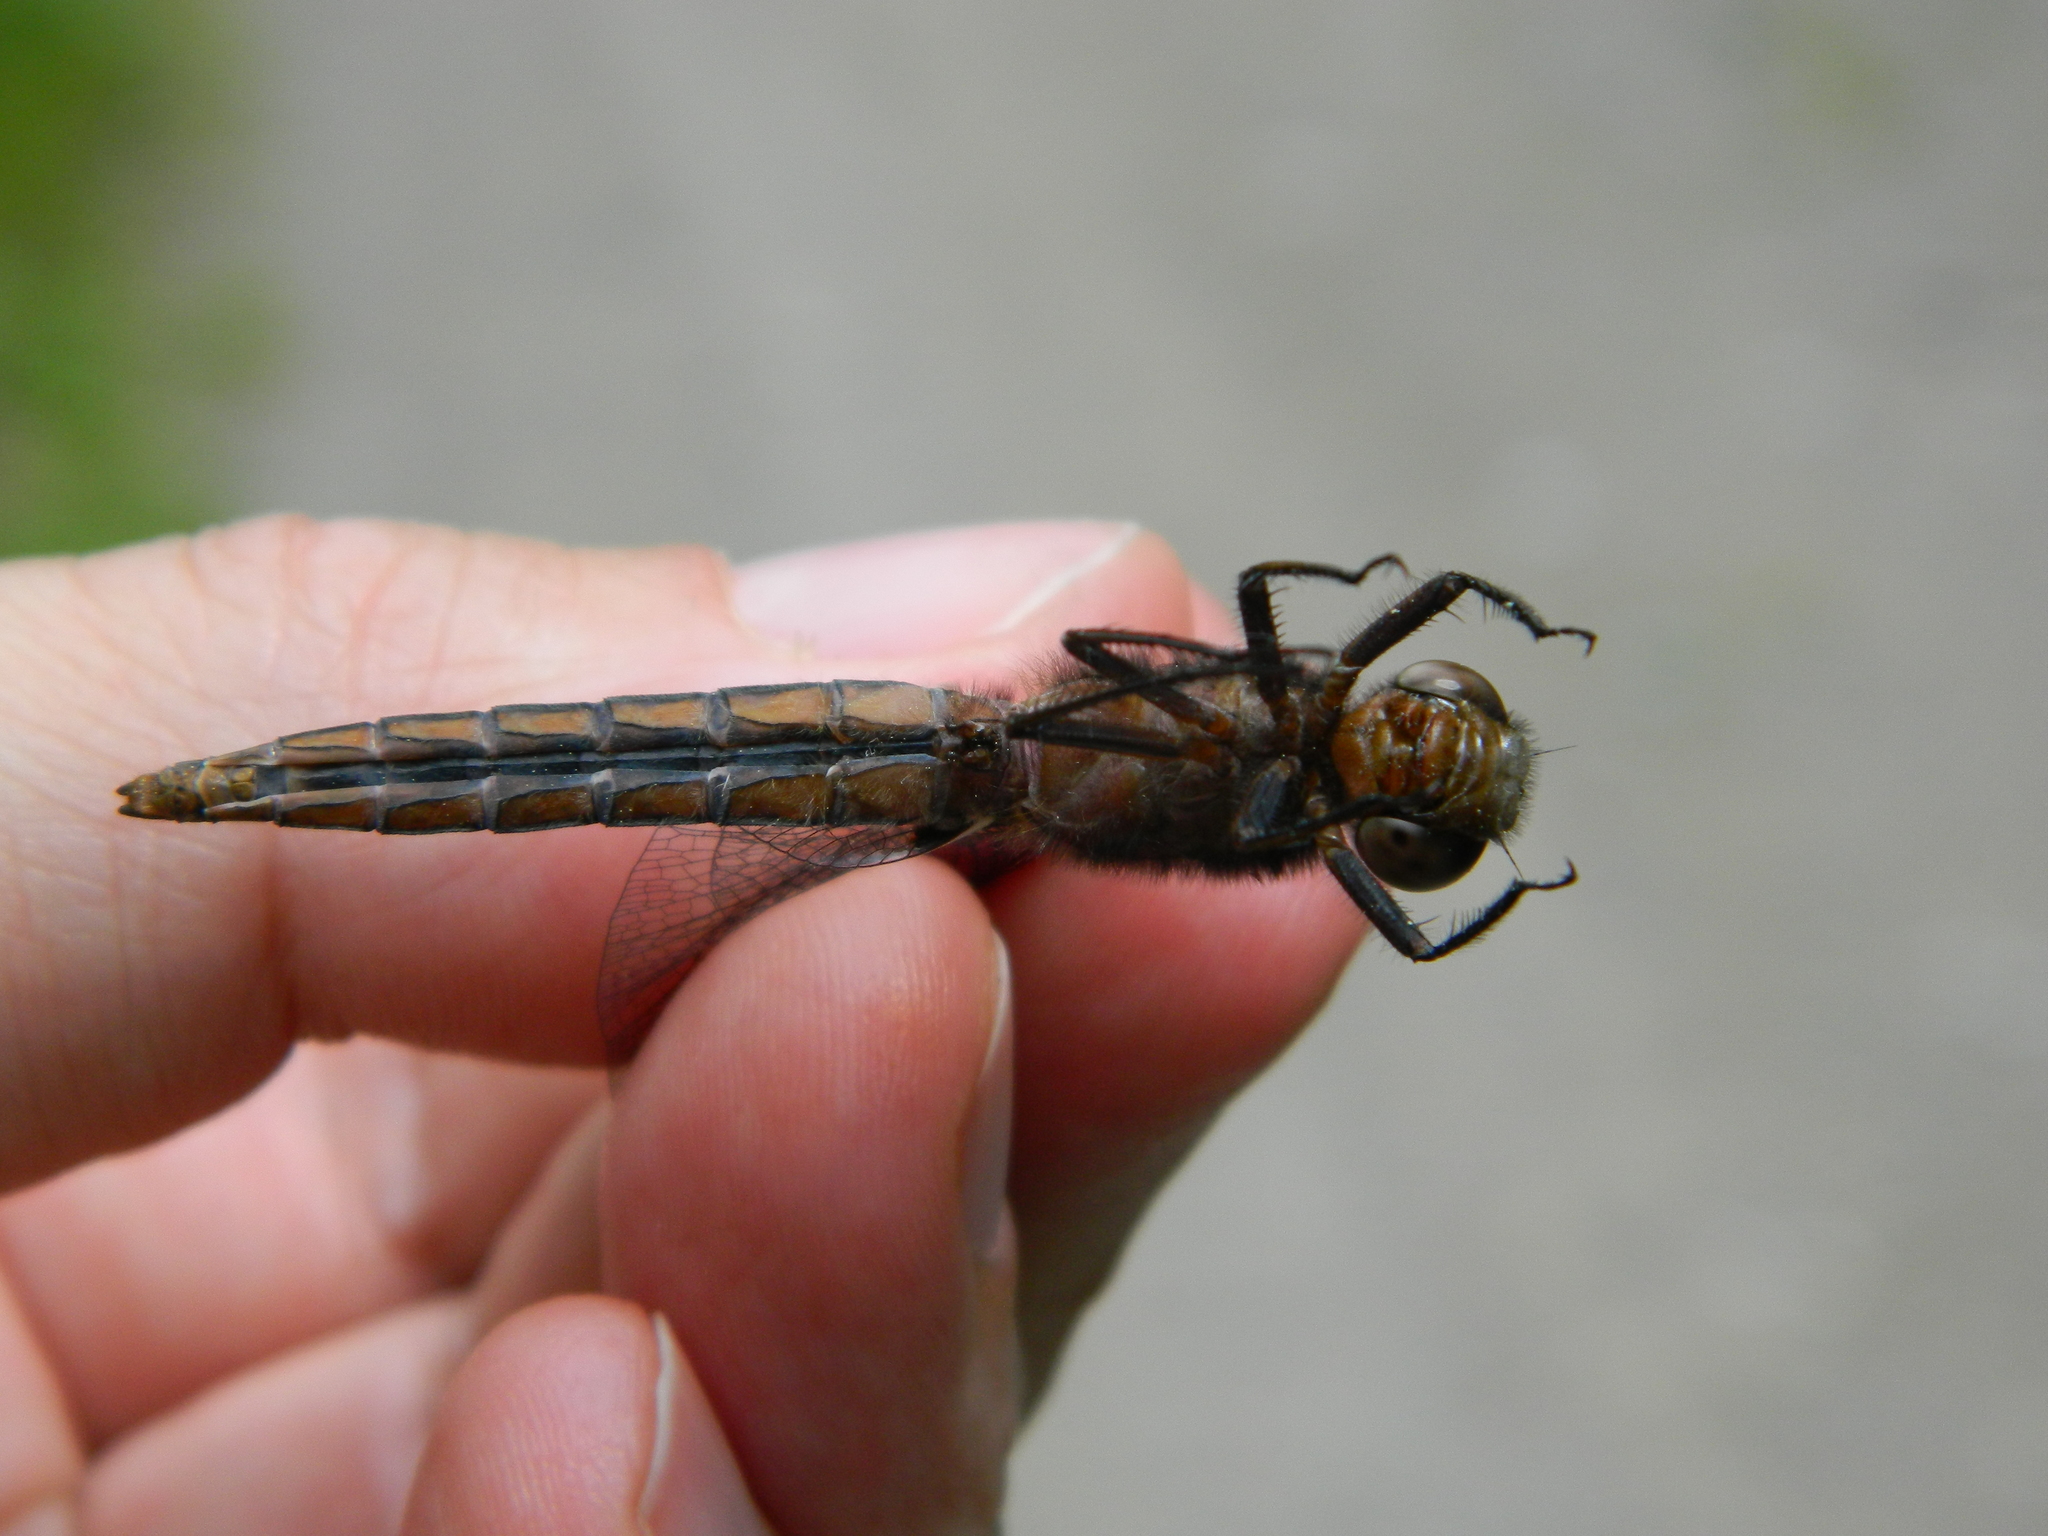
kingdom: Animalia
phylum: Arthropoda
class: Insecta
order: Odonata
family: Libellulidae
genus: Ladona
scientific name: Ladona julia
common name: Chalk-fronted corporal
